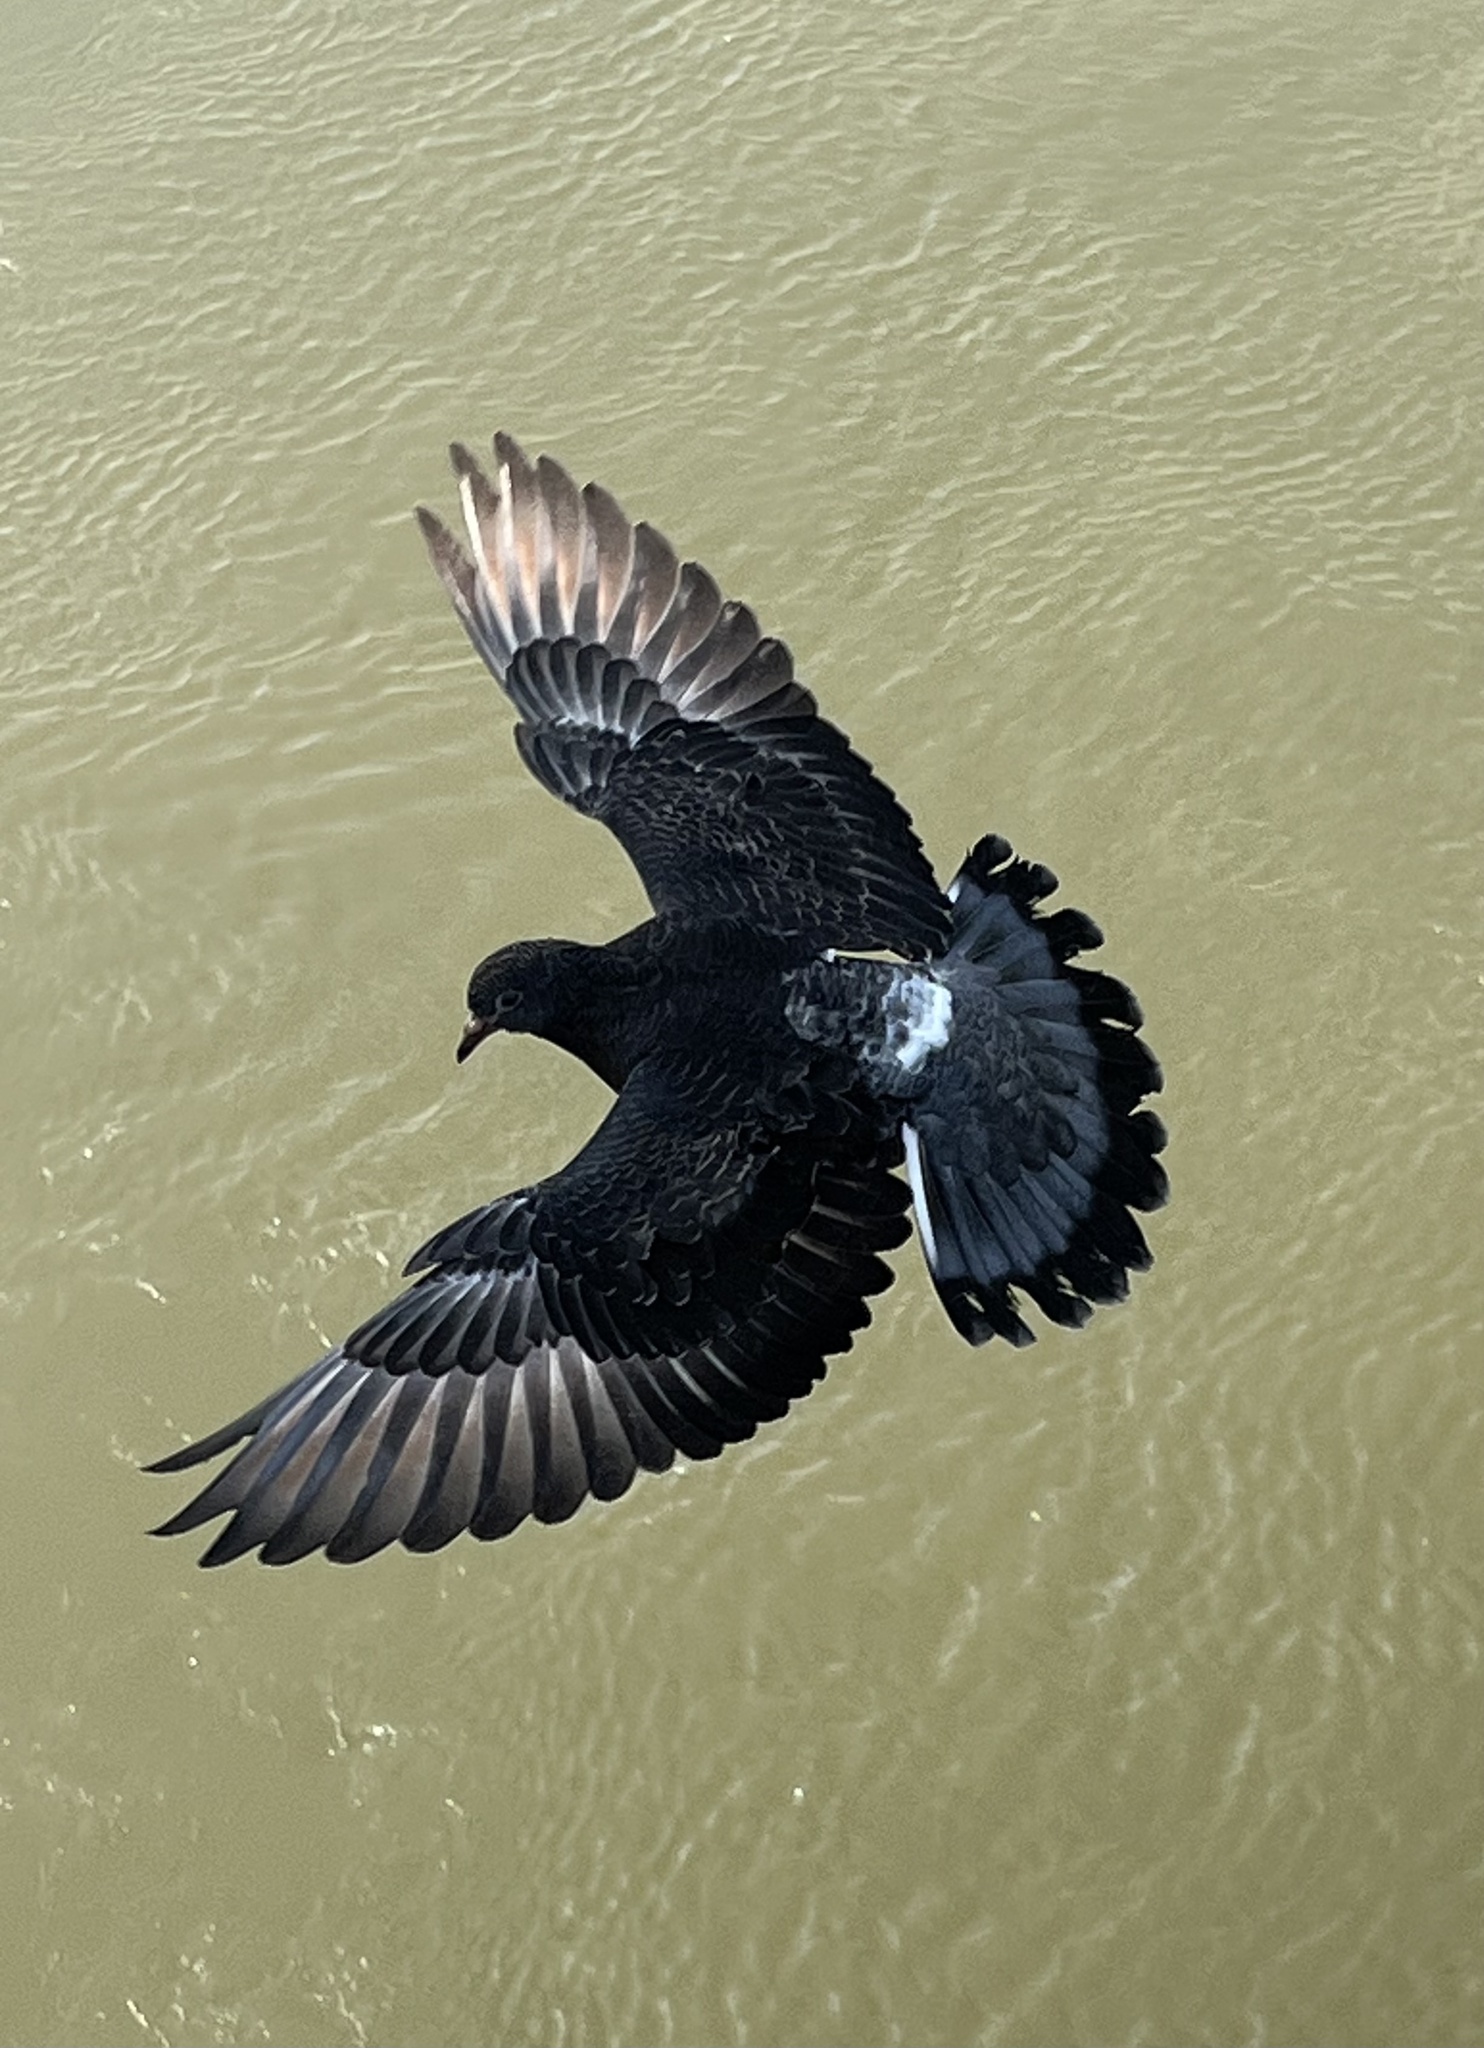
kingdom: Animalia
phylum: Chordata
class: Aves
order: Columbiformes
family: Columbidae
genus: Columba
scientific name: Columba livia
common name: Rock pigeon
